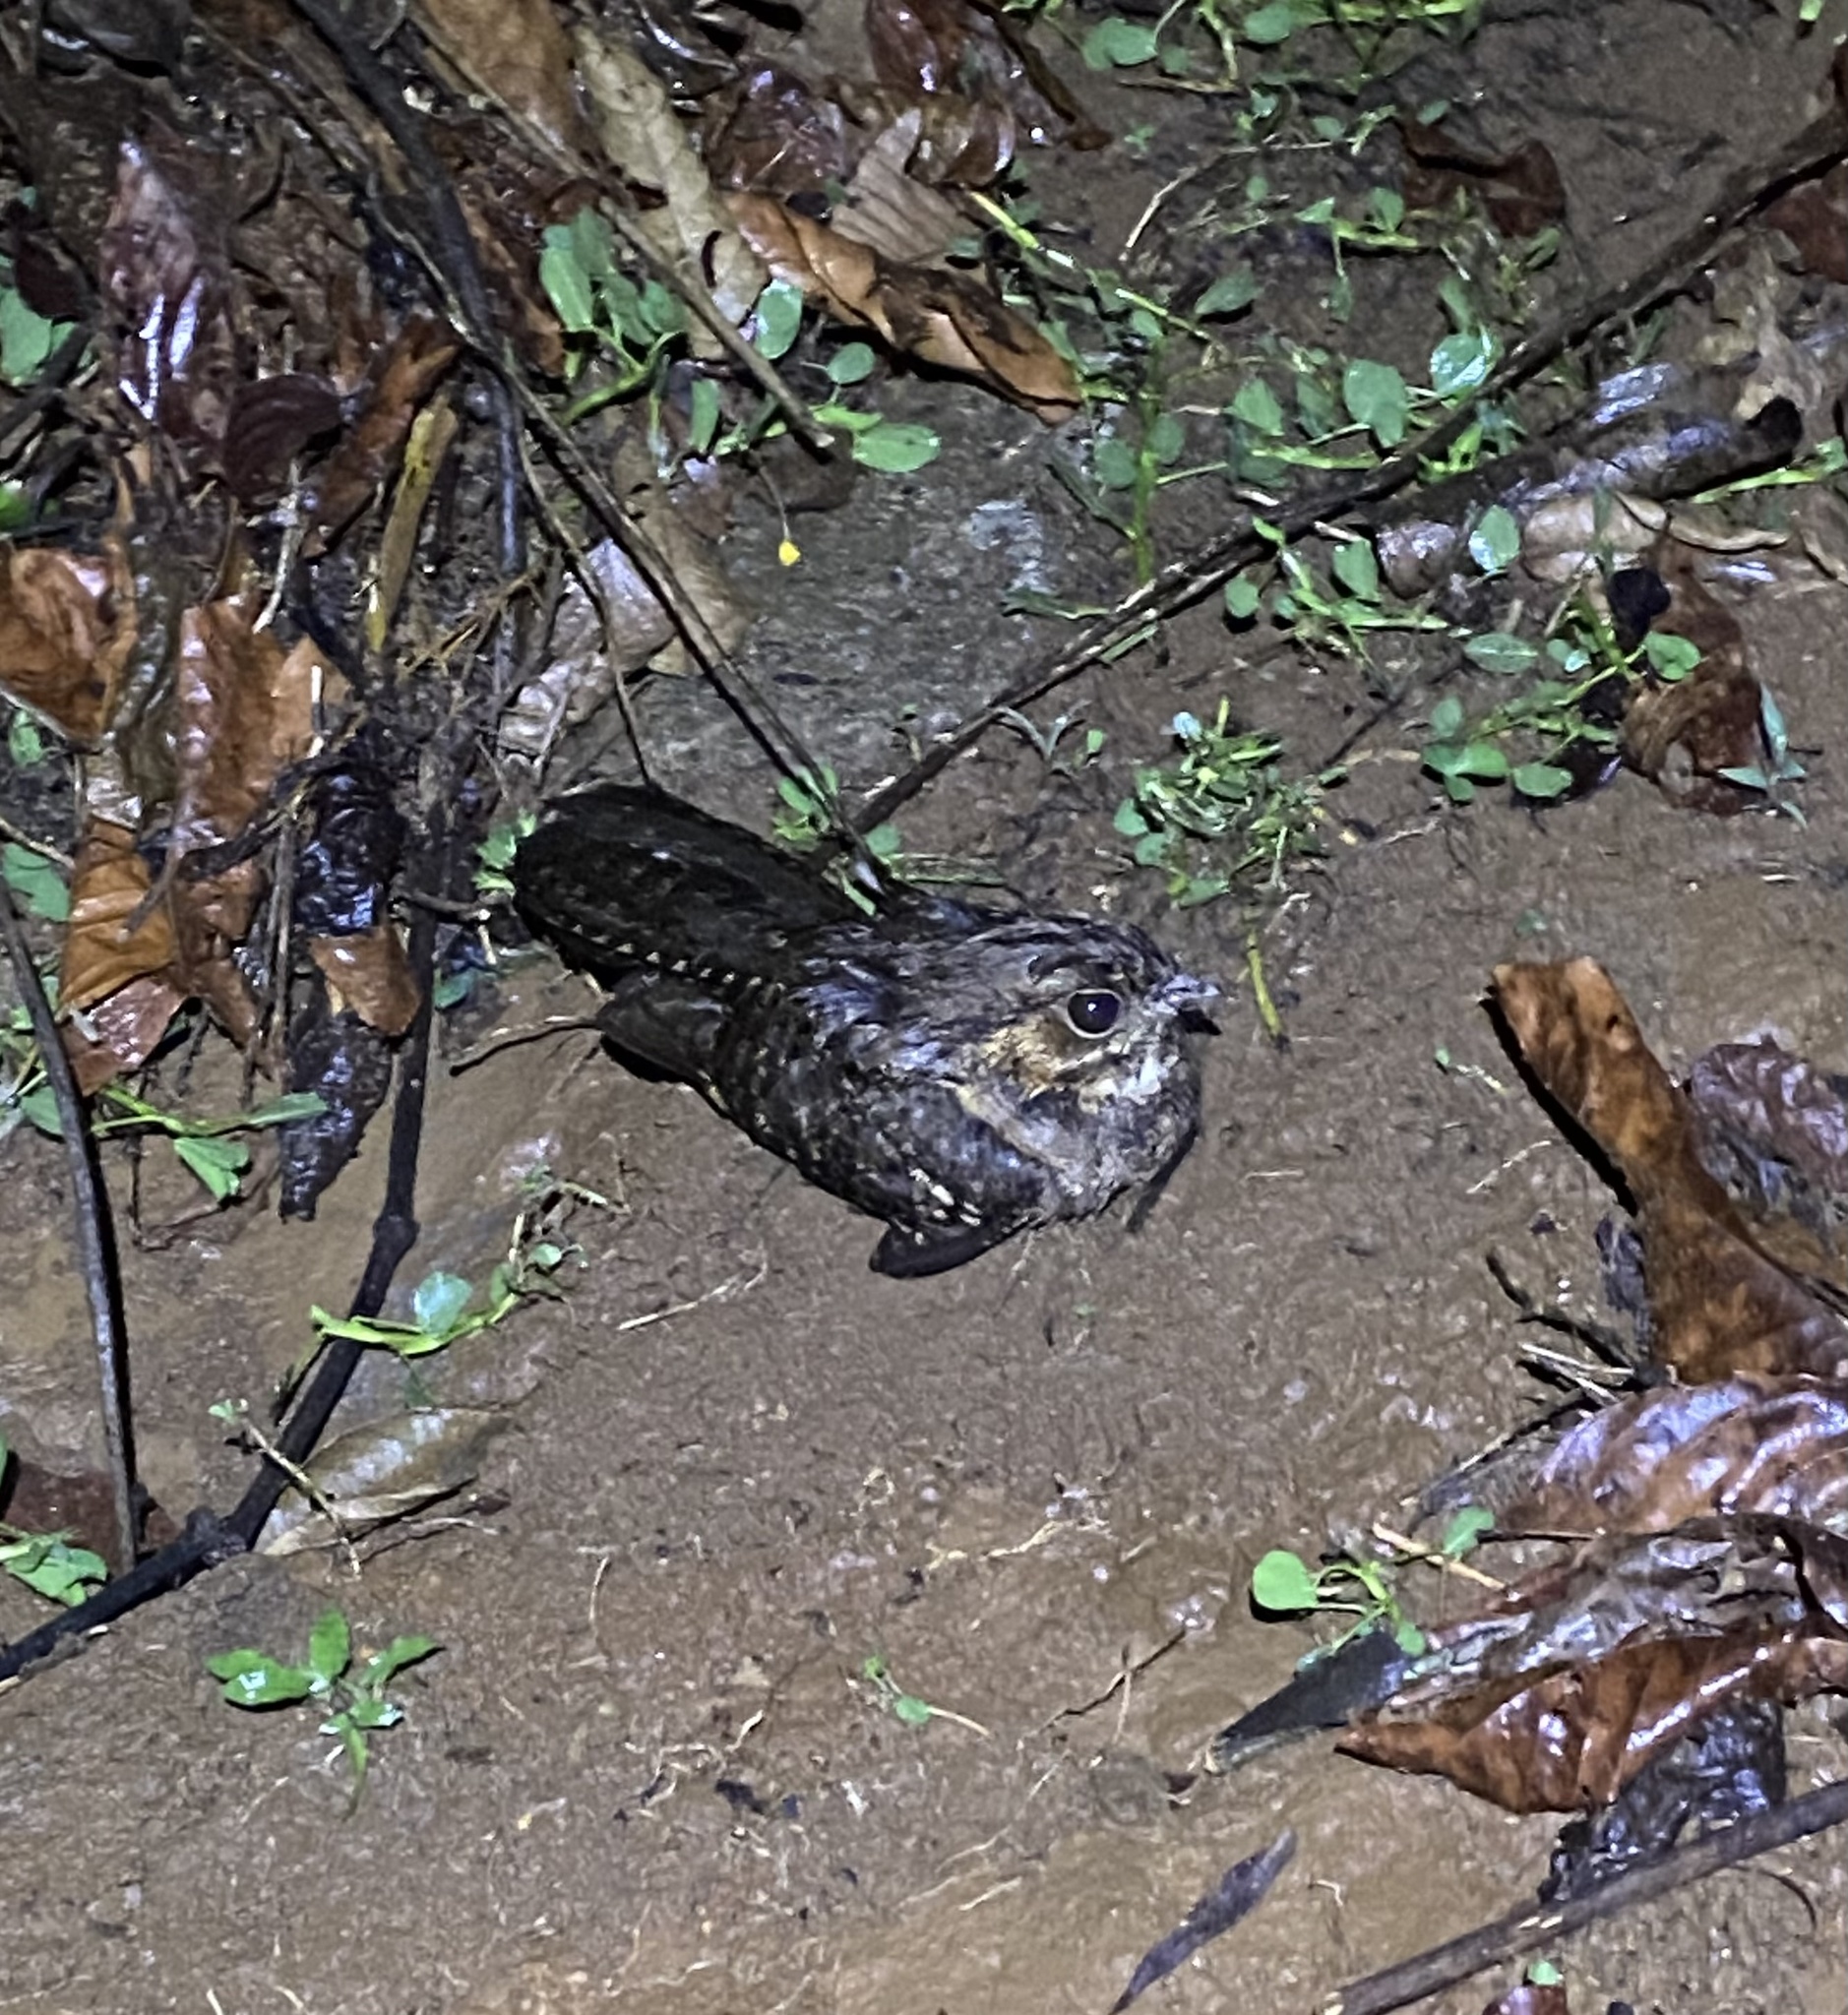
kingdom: Animalia
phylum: Chordata
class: Aves
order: Caprimulgiformes
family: Caprimulgidae
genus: Nyctidromus
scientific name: Nyctidromus albicollis
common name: Pauraque
